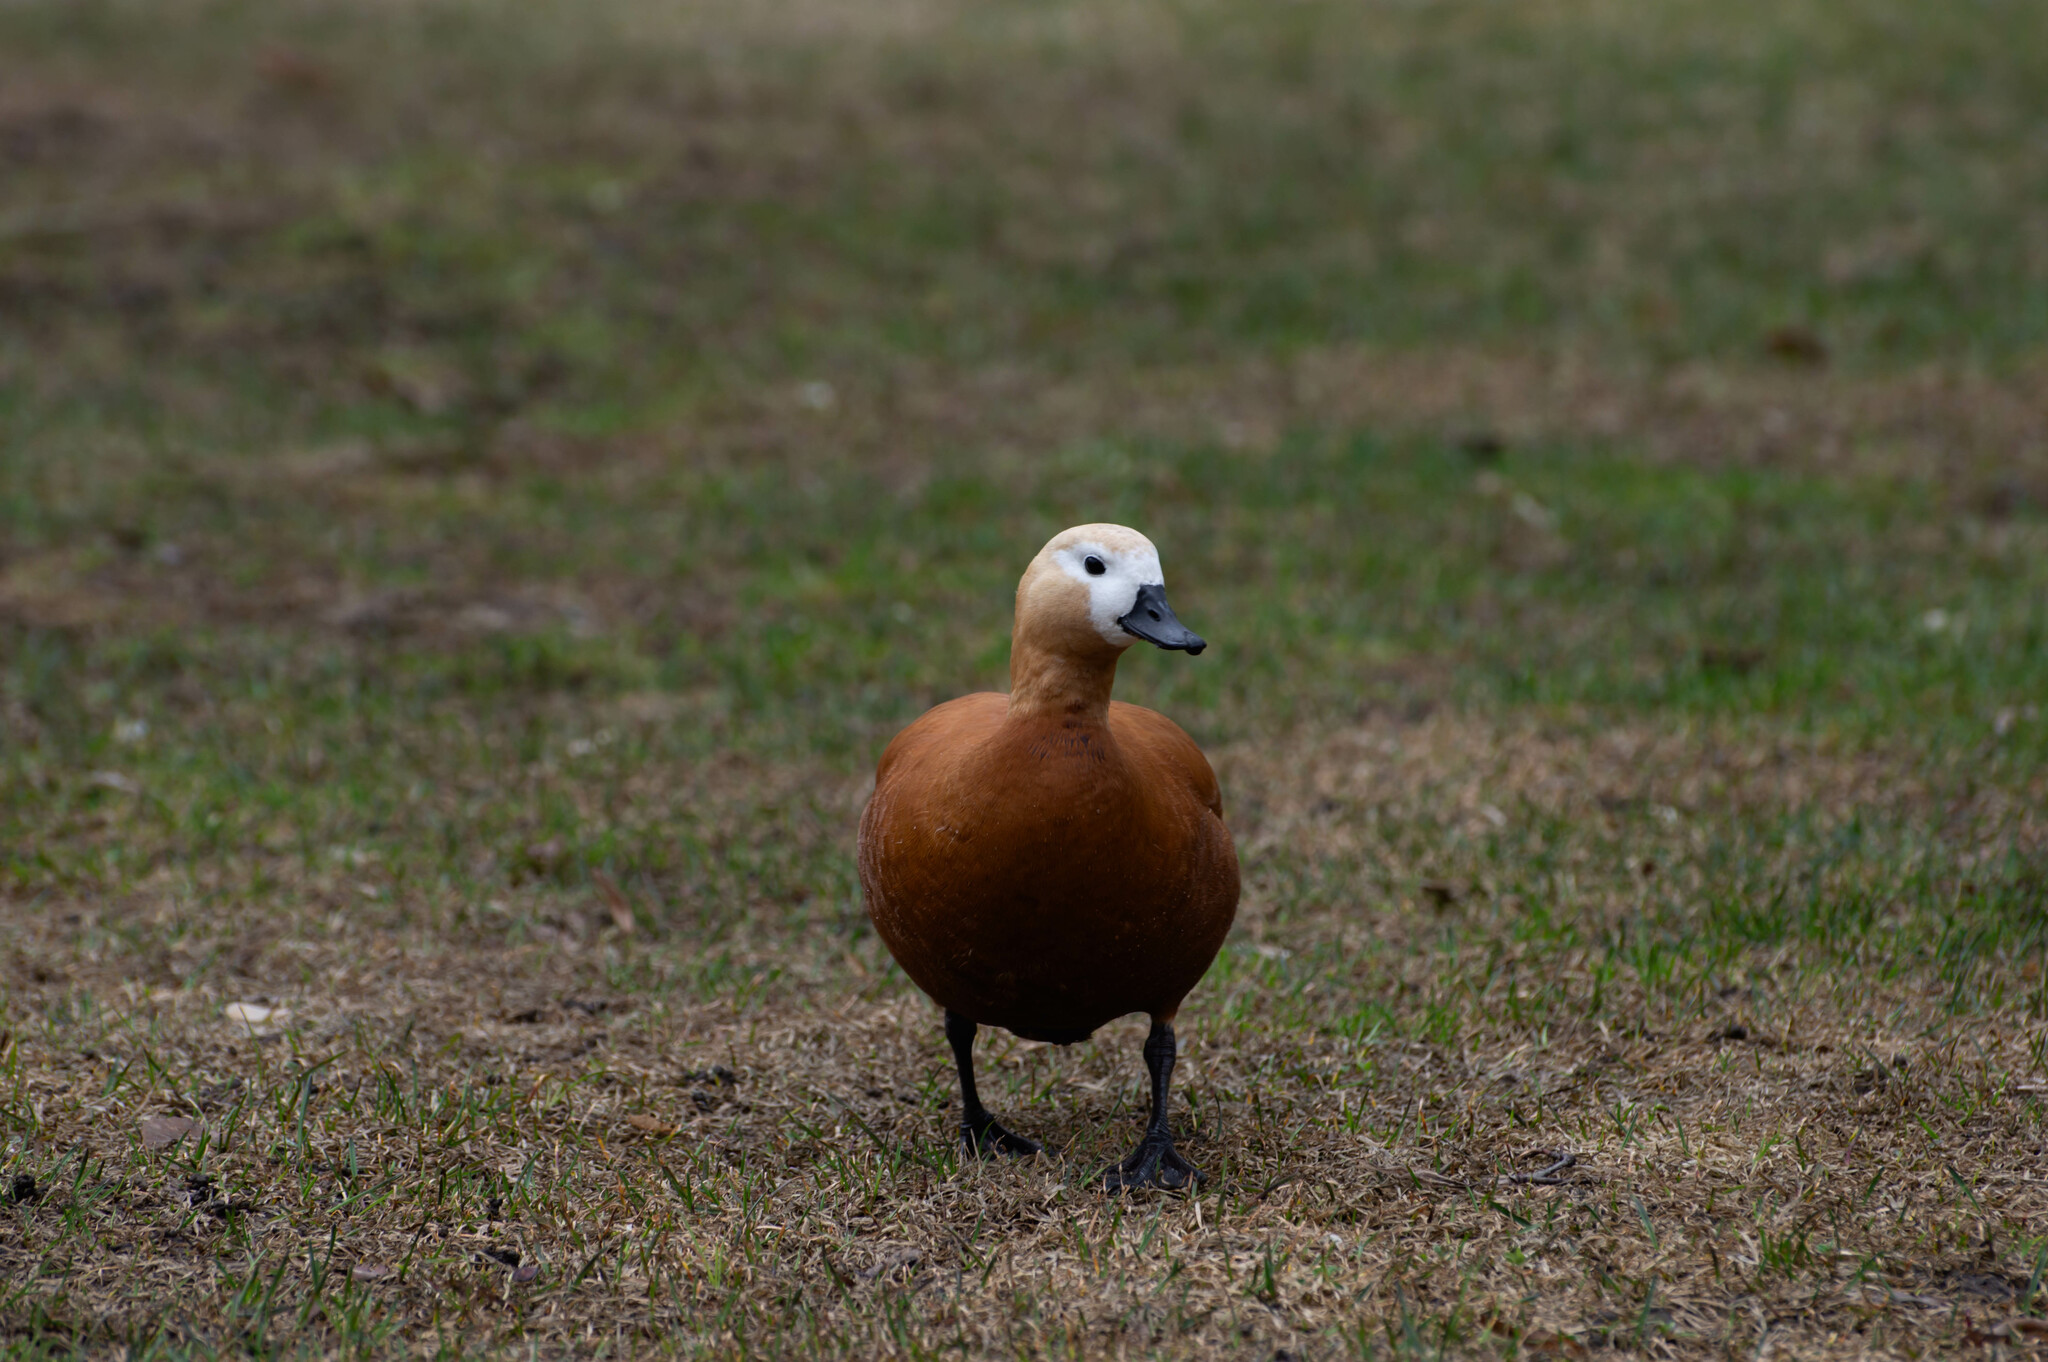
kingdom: Animalia
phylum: Chordata
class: Aves
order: Anseriformes
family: Anatidae
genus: Tadorna
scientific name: Tadorna ferruginea
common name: Ruddy shelduck
